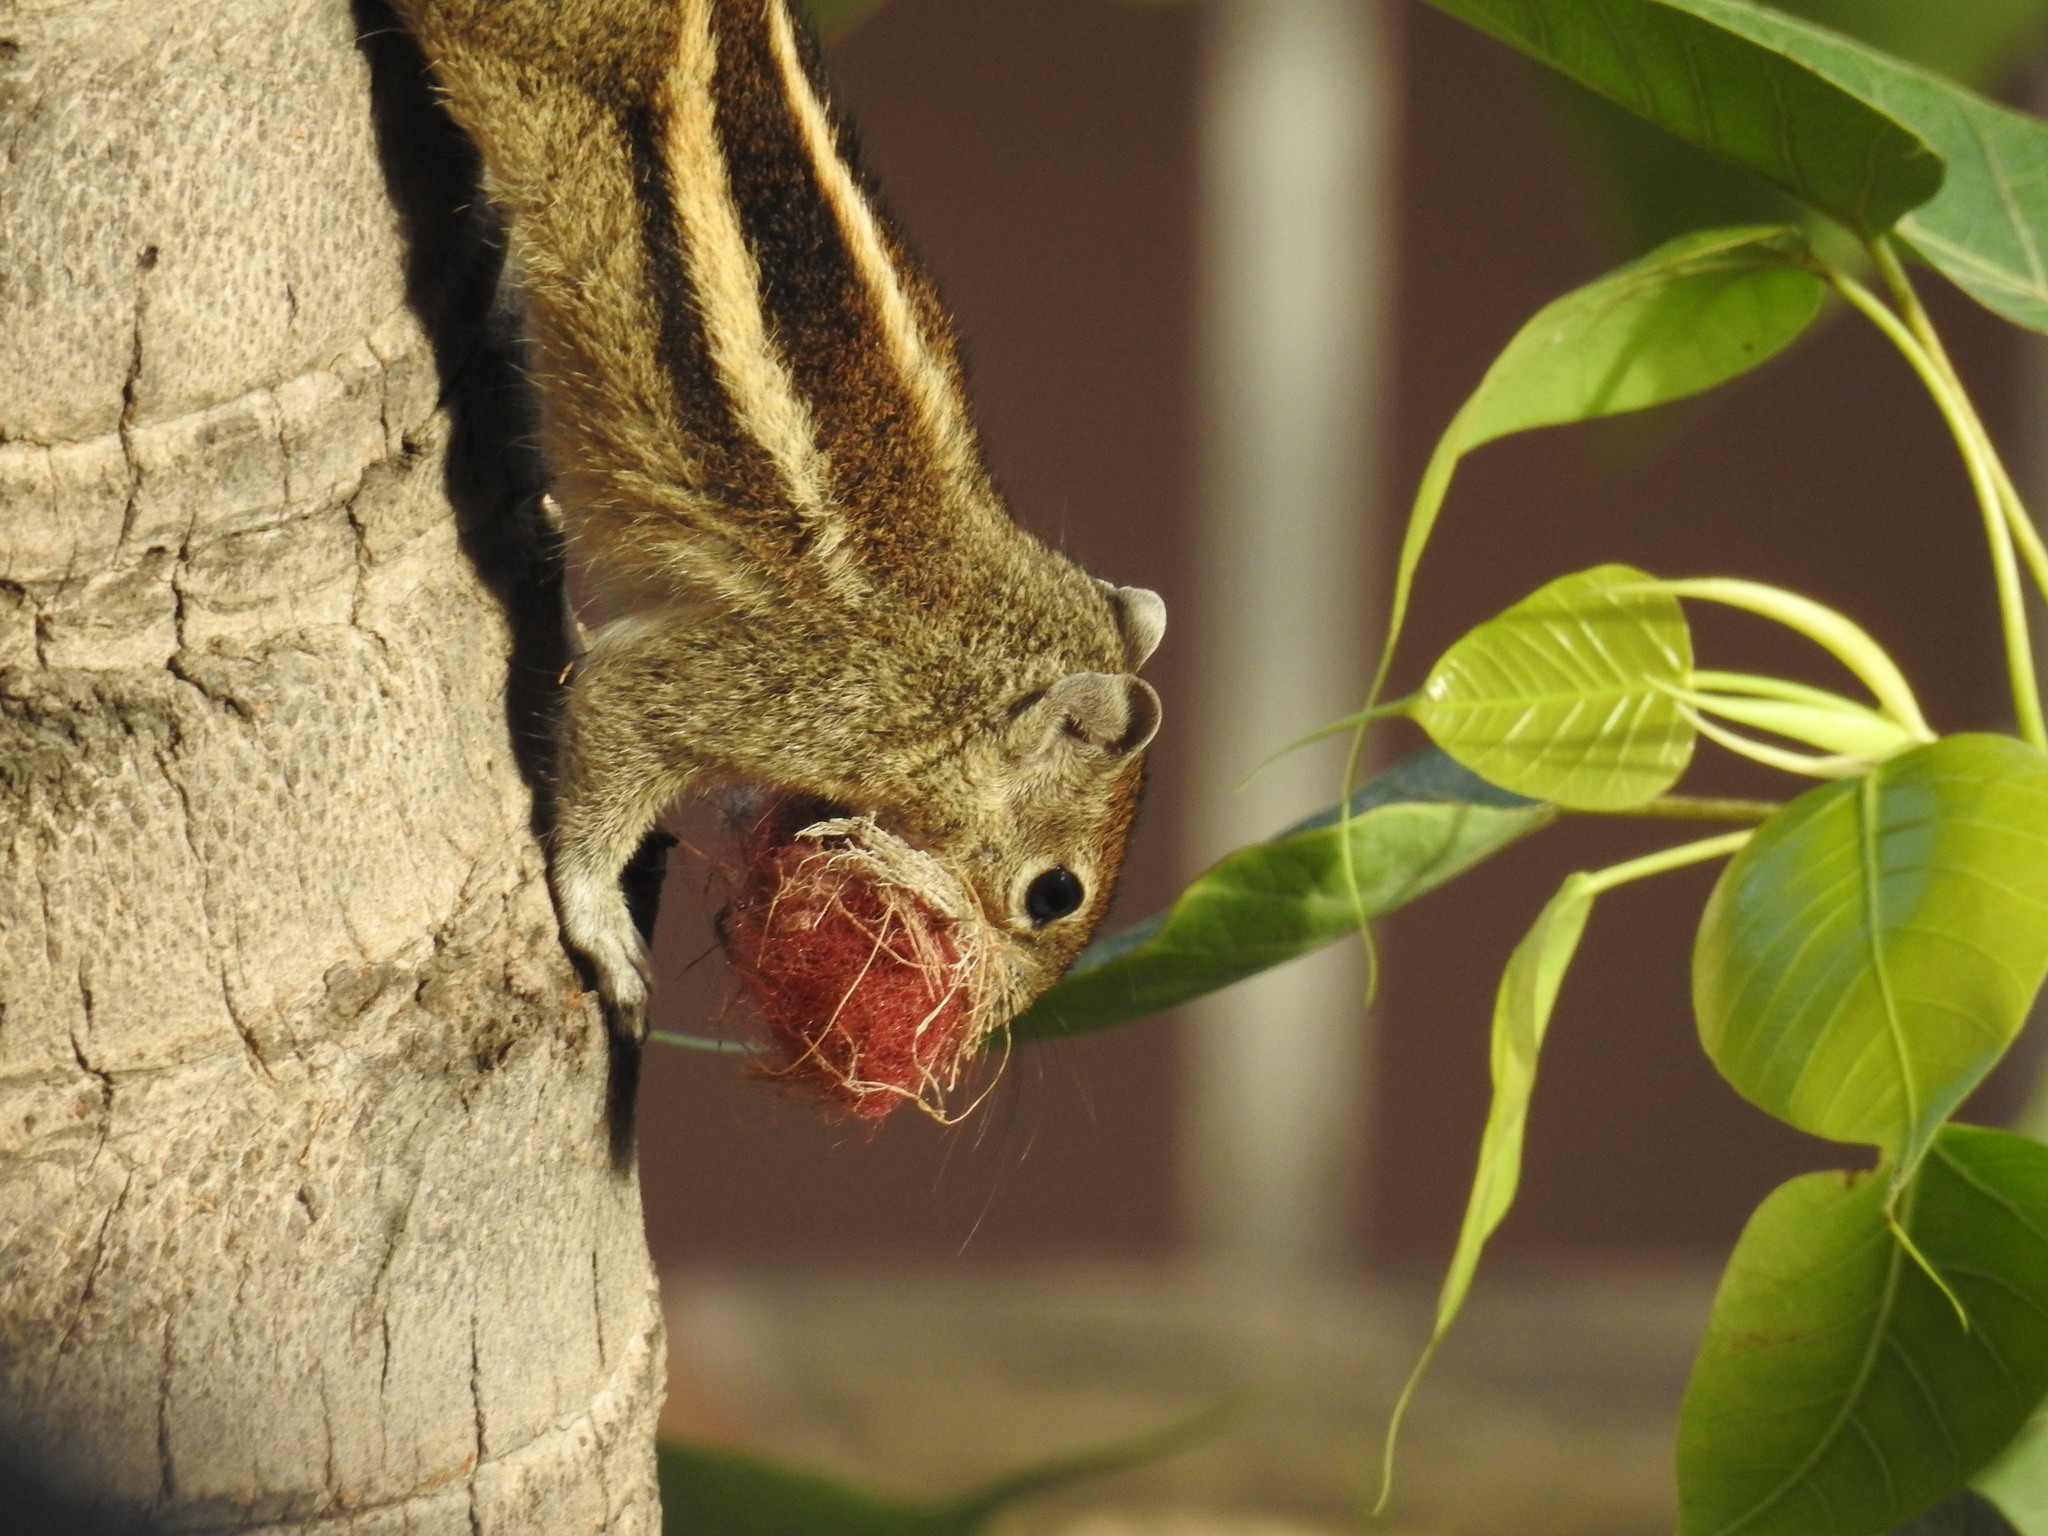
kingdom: Animalia
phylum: Chordata
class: Mammalia
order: Rodentia
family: Sciuridae
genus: Funambulus
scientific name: Funambulus palmarum
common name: Indian palm squirrel
